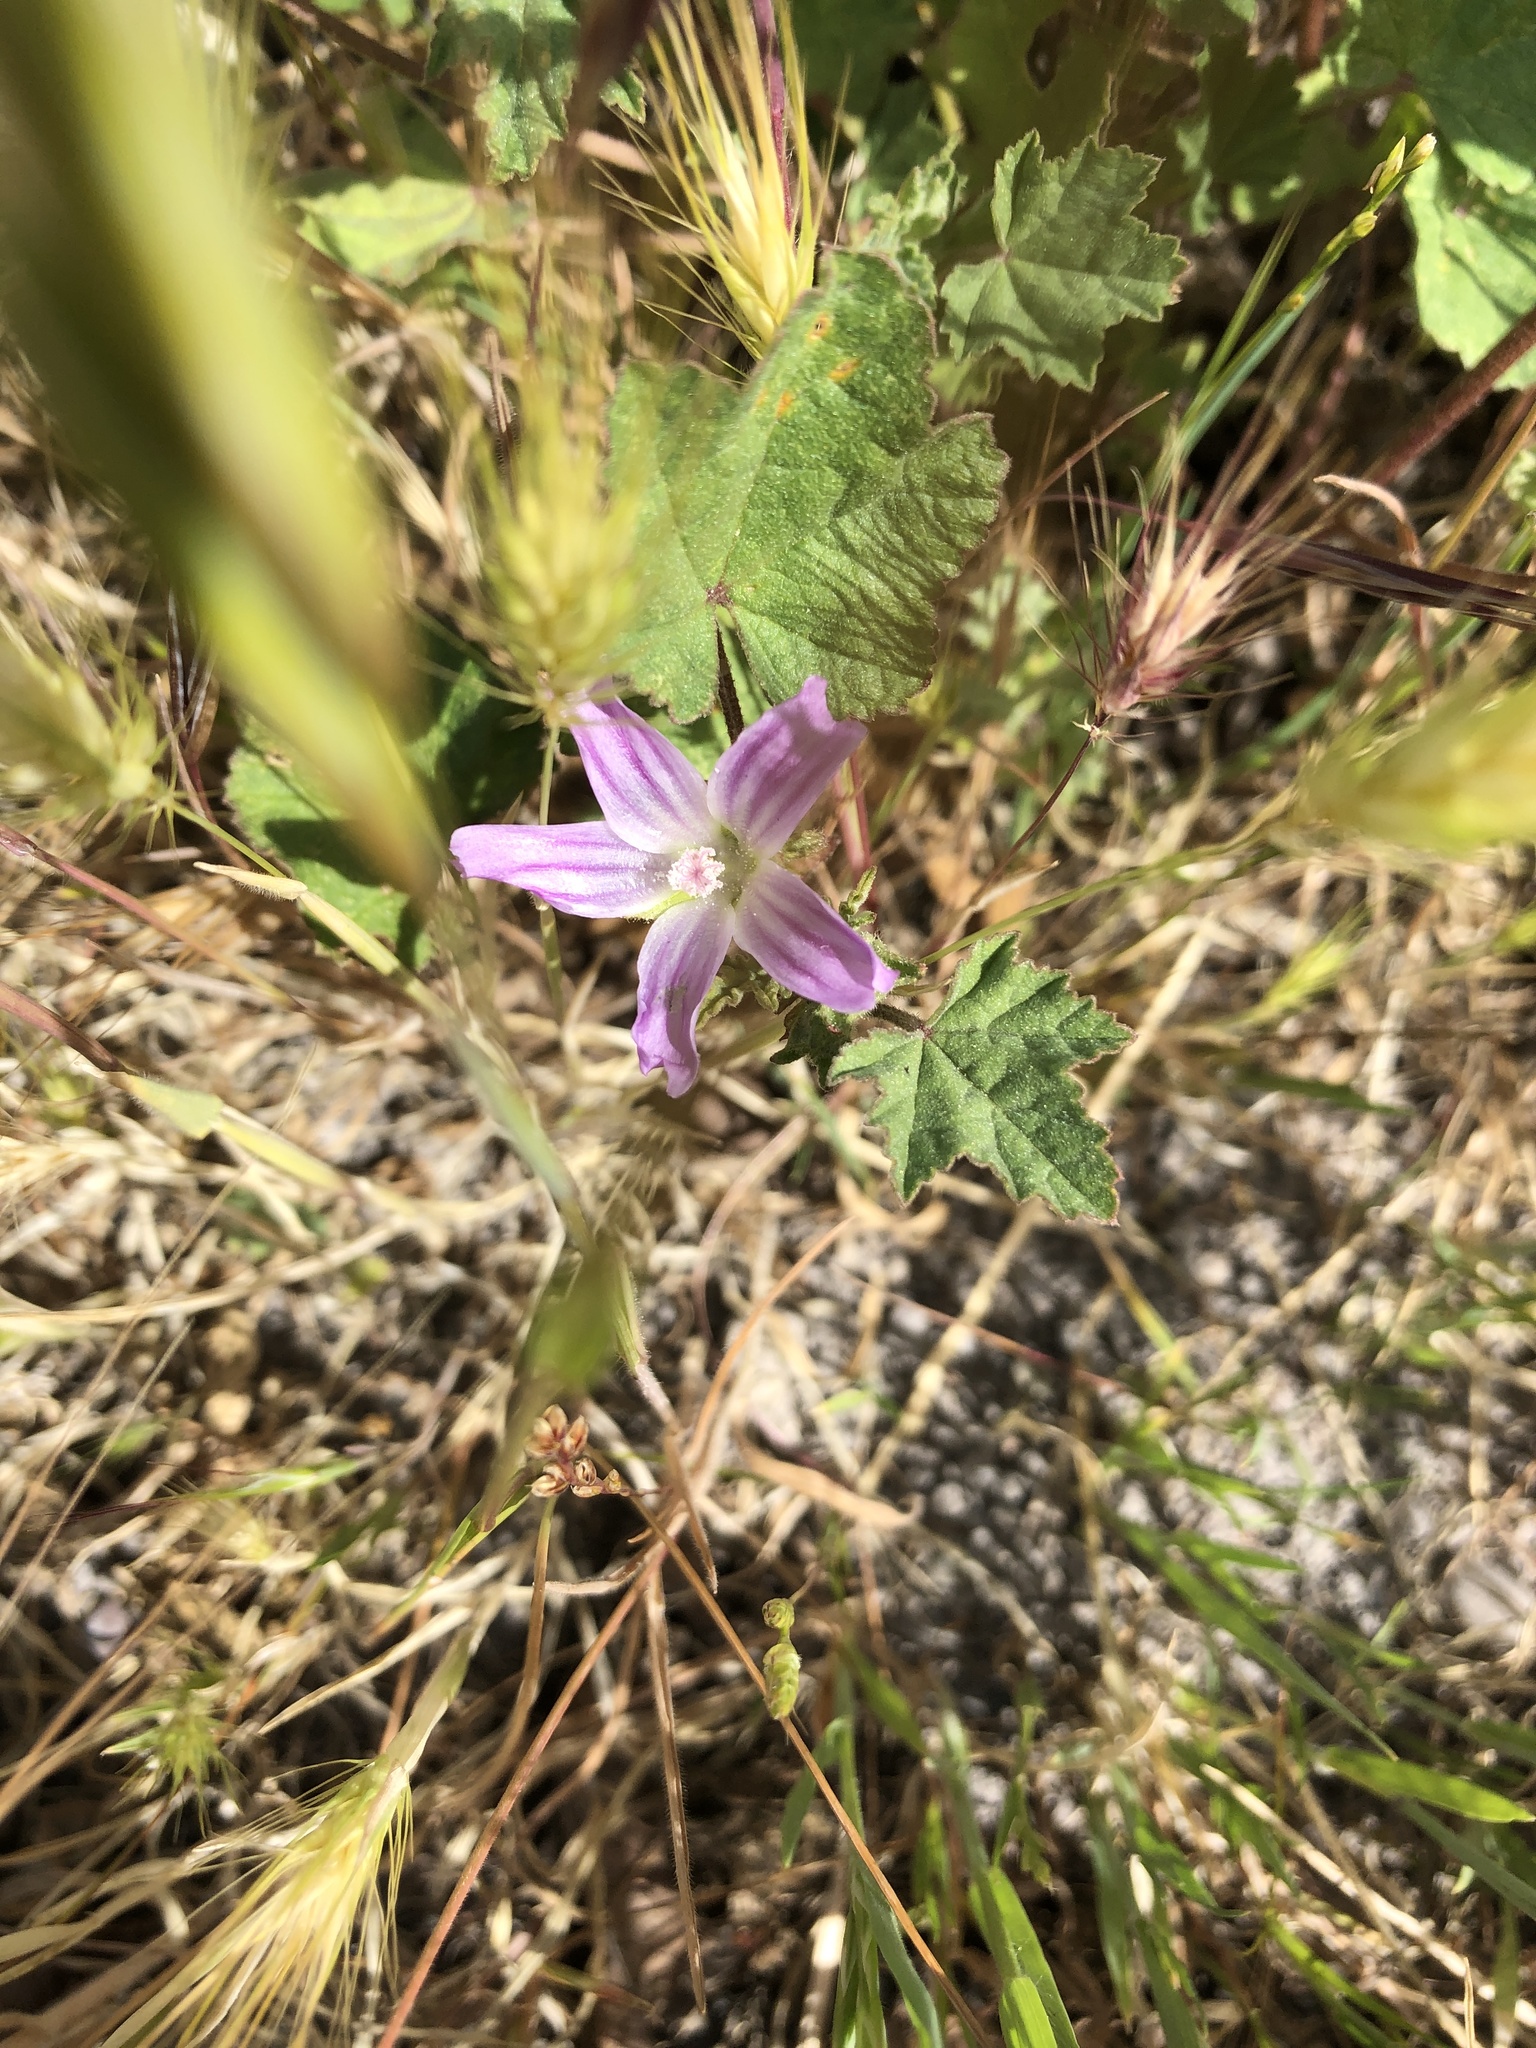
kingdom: Plantae
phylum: Tracheophyta
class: Magnoliopsida
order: Malvales
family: Malvaceae
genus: Malva
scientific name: Malva multiflora
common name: Cheeseweed
